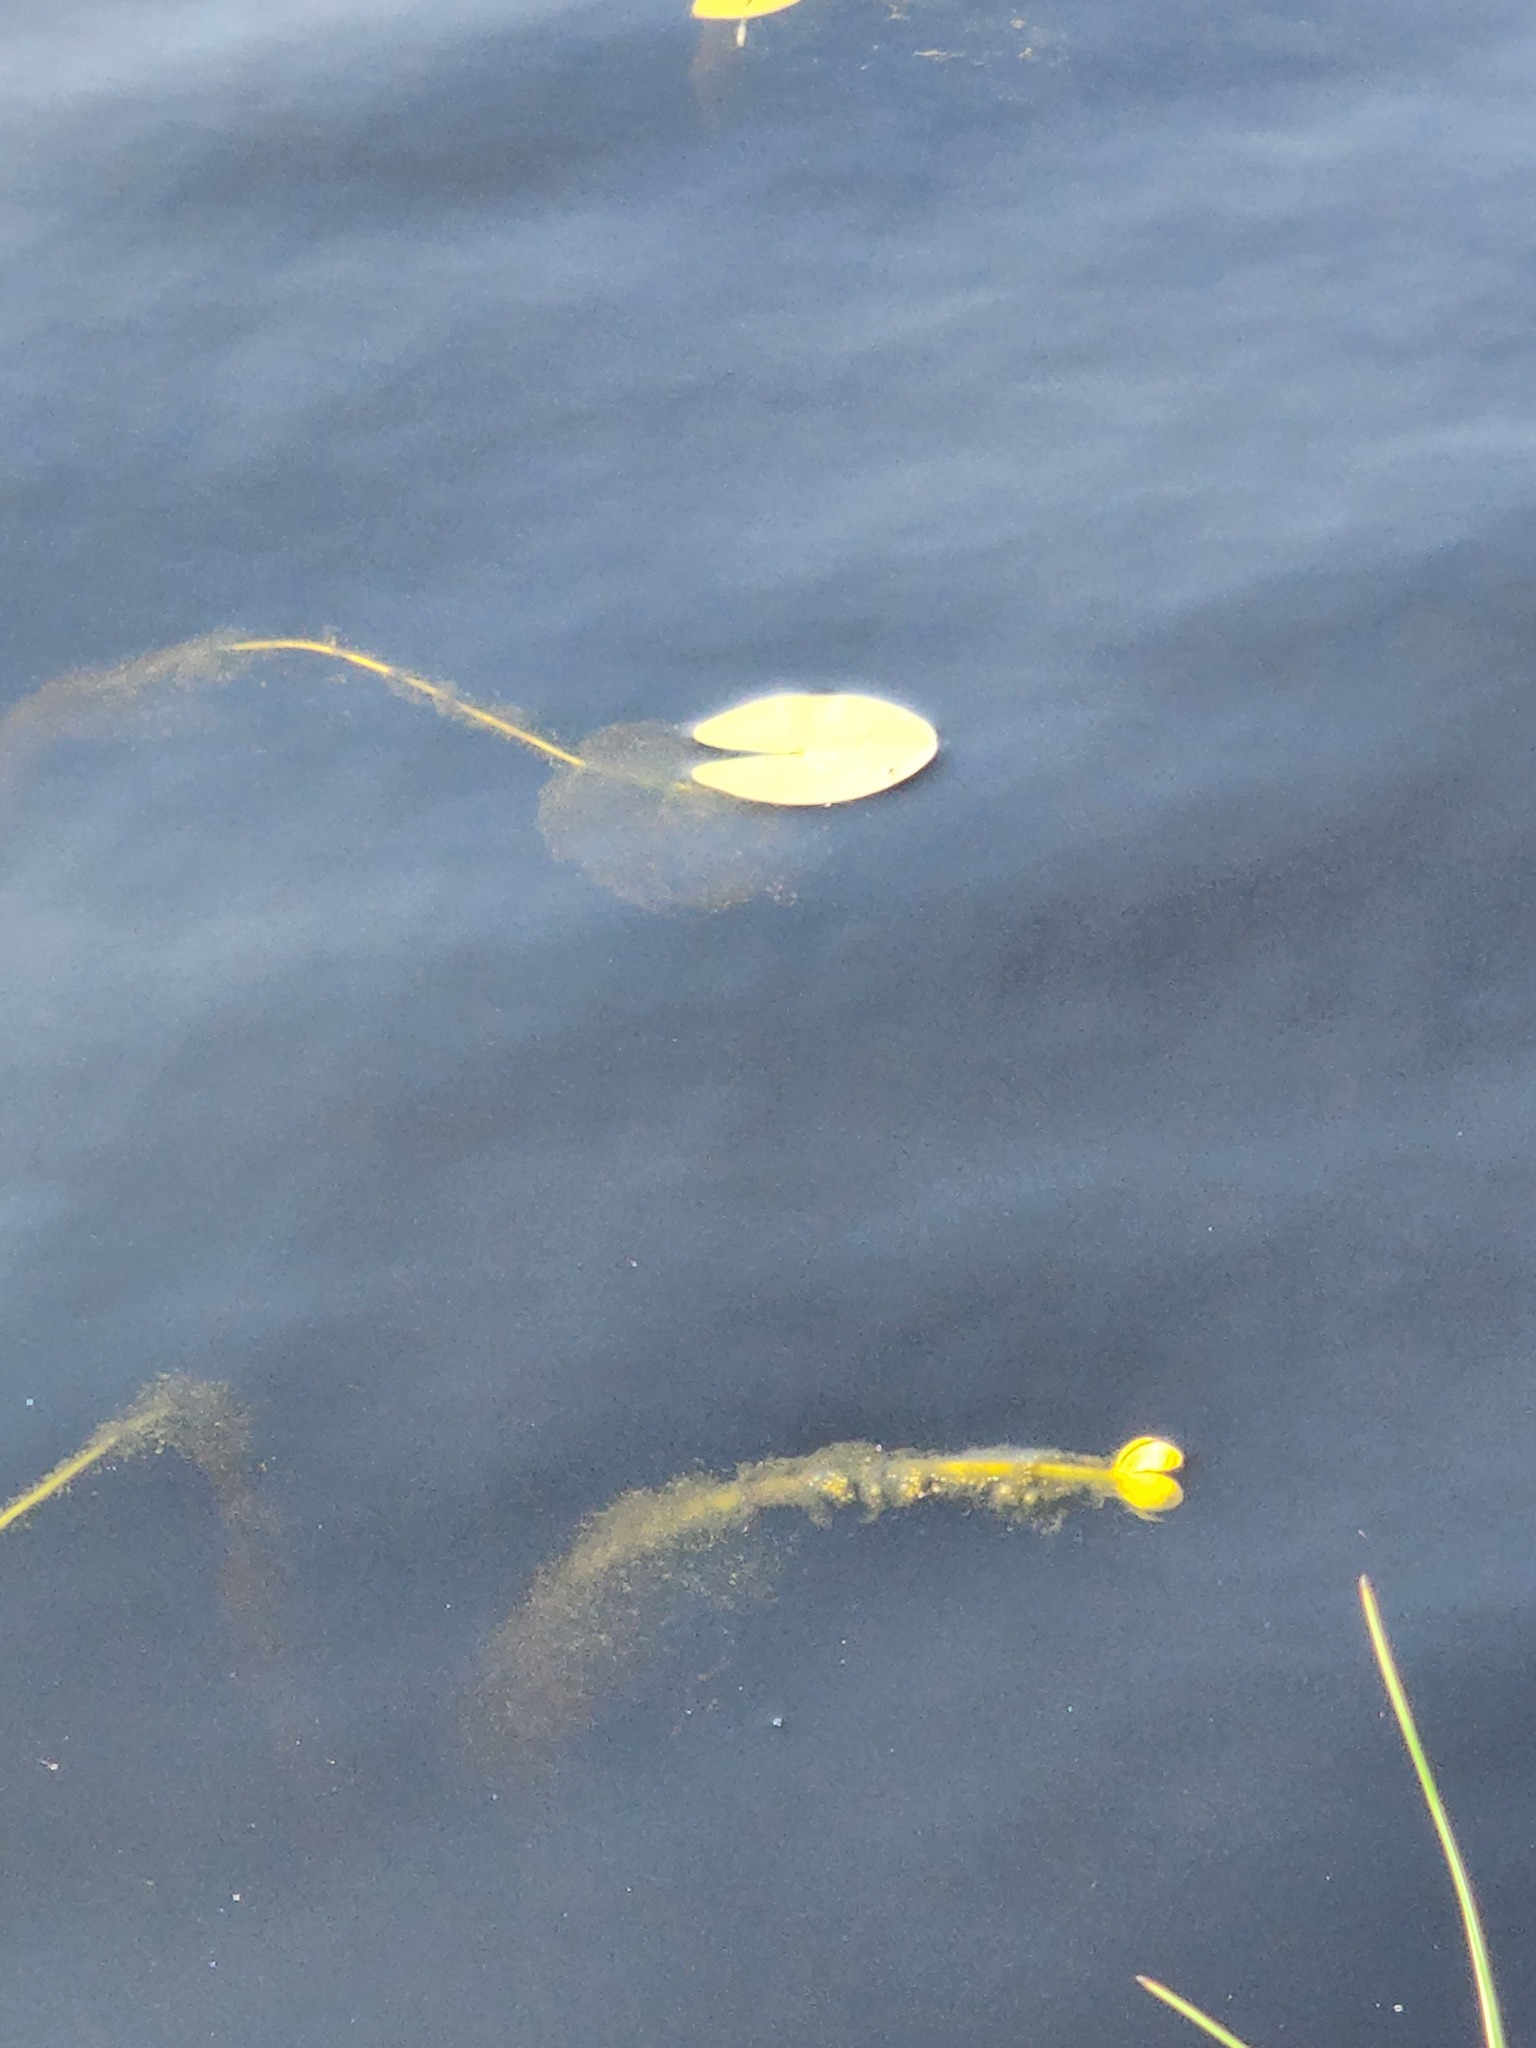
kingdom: Plantae
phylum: Tracheophyta
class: Magnoliopsida
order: Nymphaeales
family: Nymphaeaceae
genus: Nuphar
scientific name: Nuphar microphylla
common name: Small pond-lily
